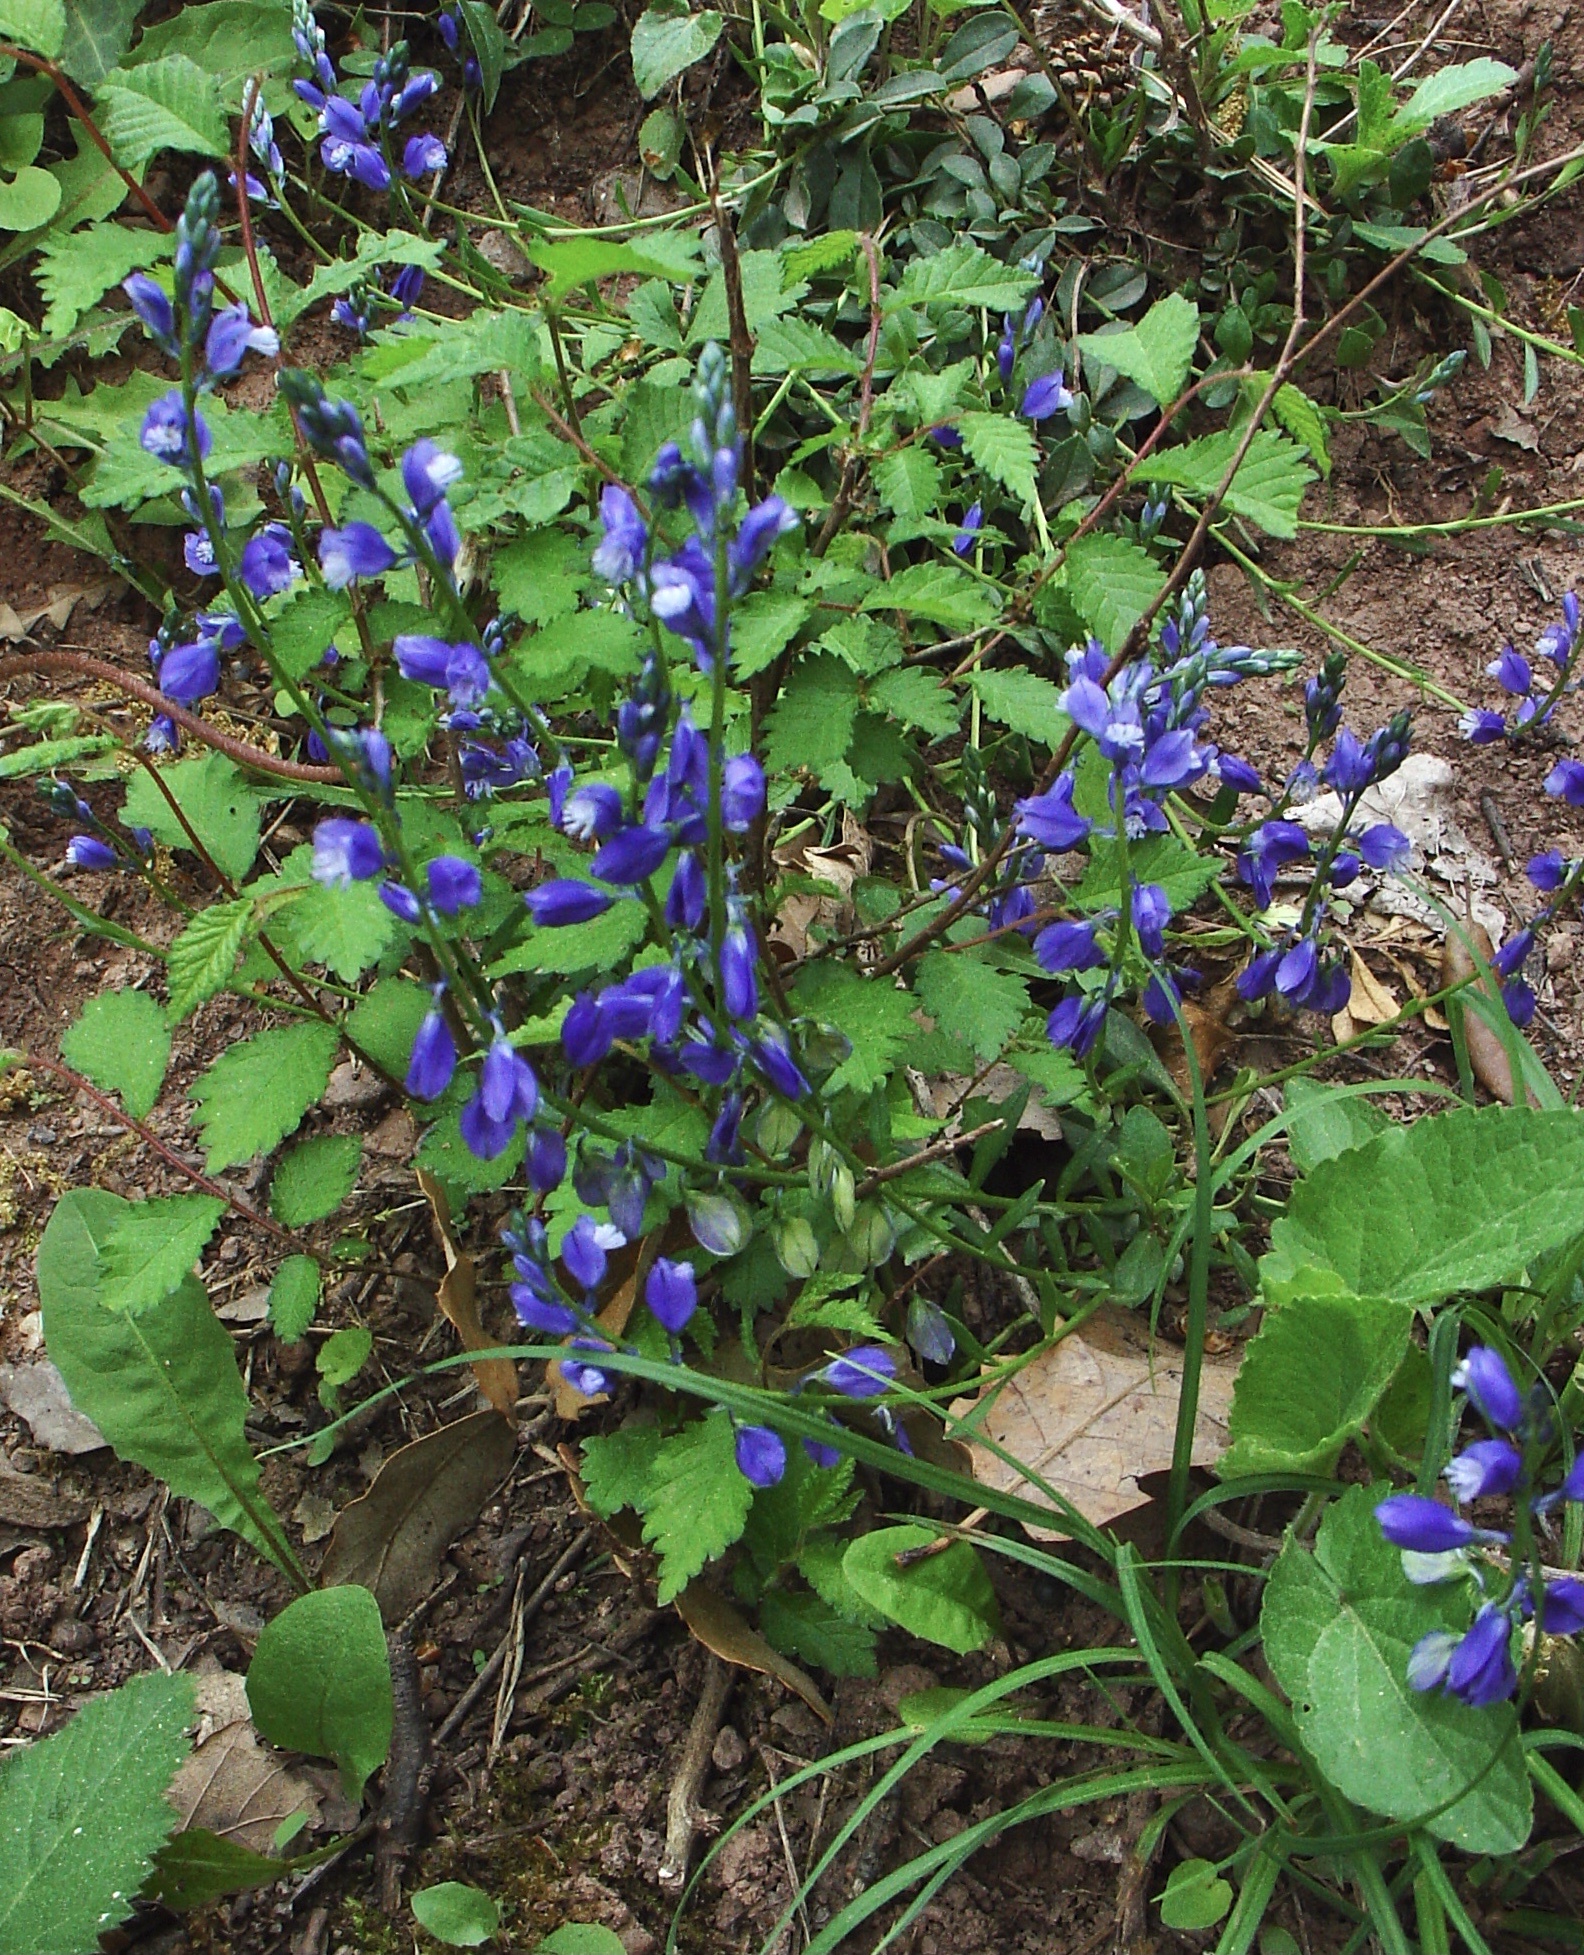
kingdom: Plantae
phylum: Tracheophyta
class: Magnoliopsida
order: Fabales
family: Polygalaceae
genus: Polygala
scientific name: Polygala vulgaris
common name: Common milkwort
